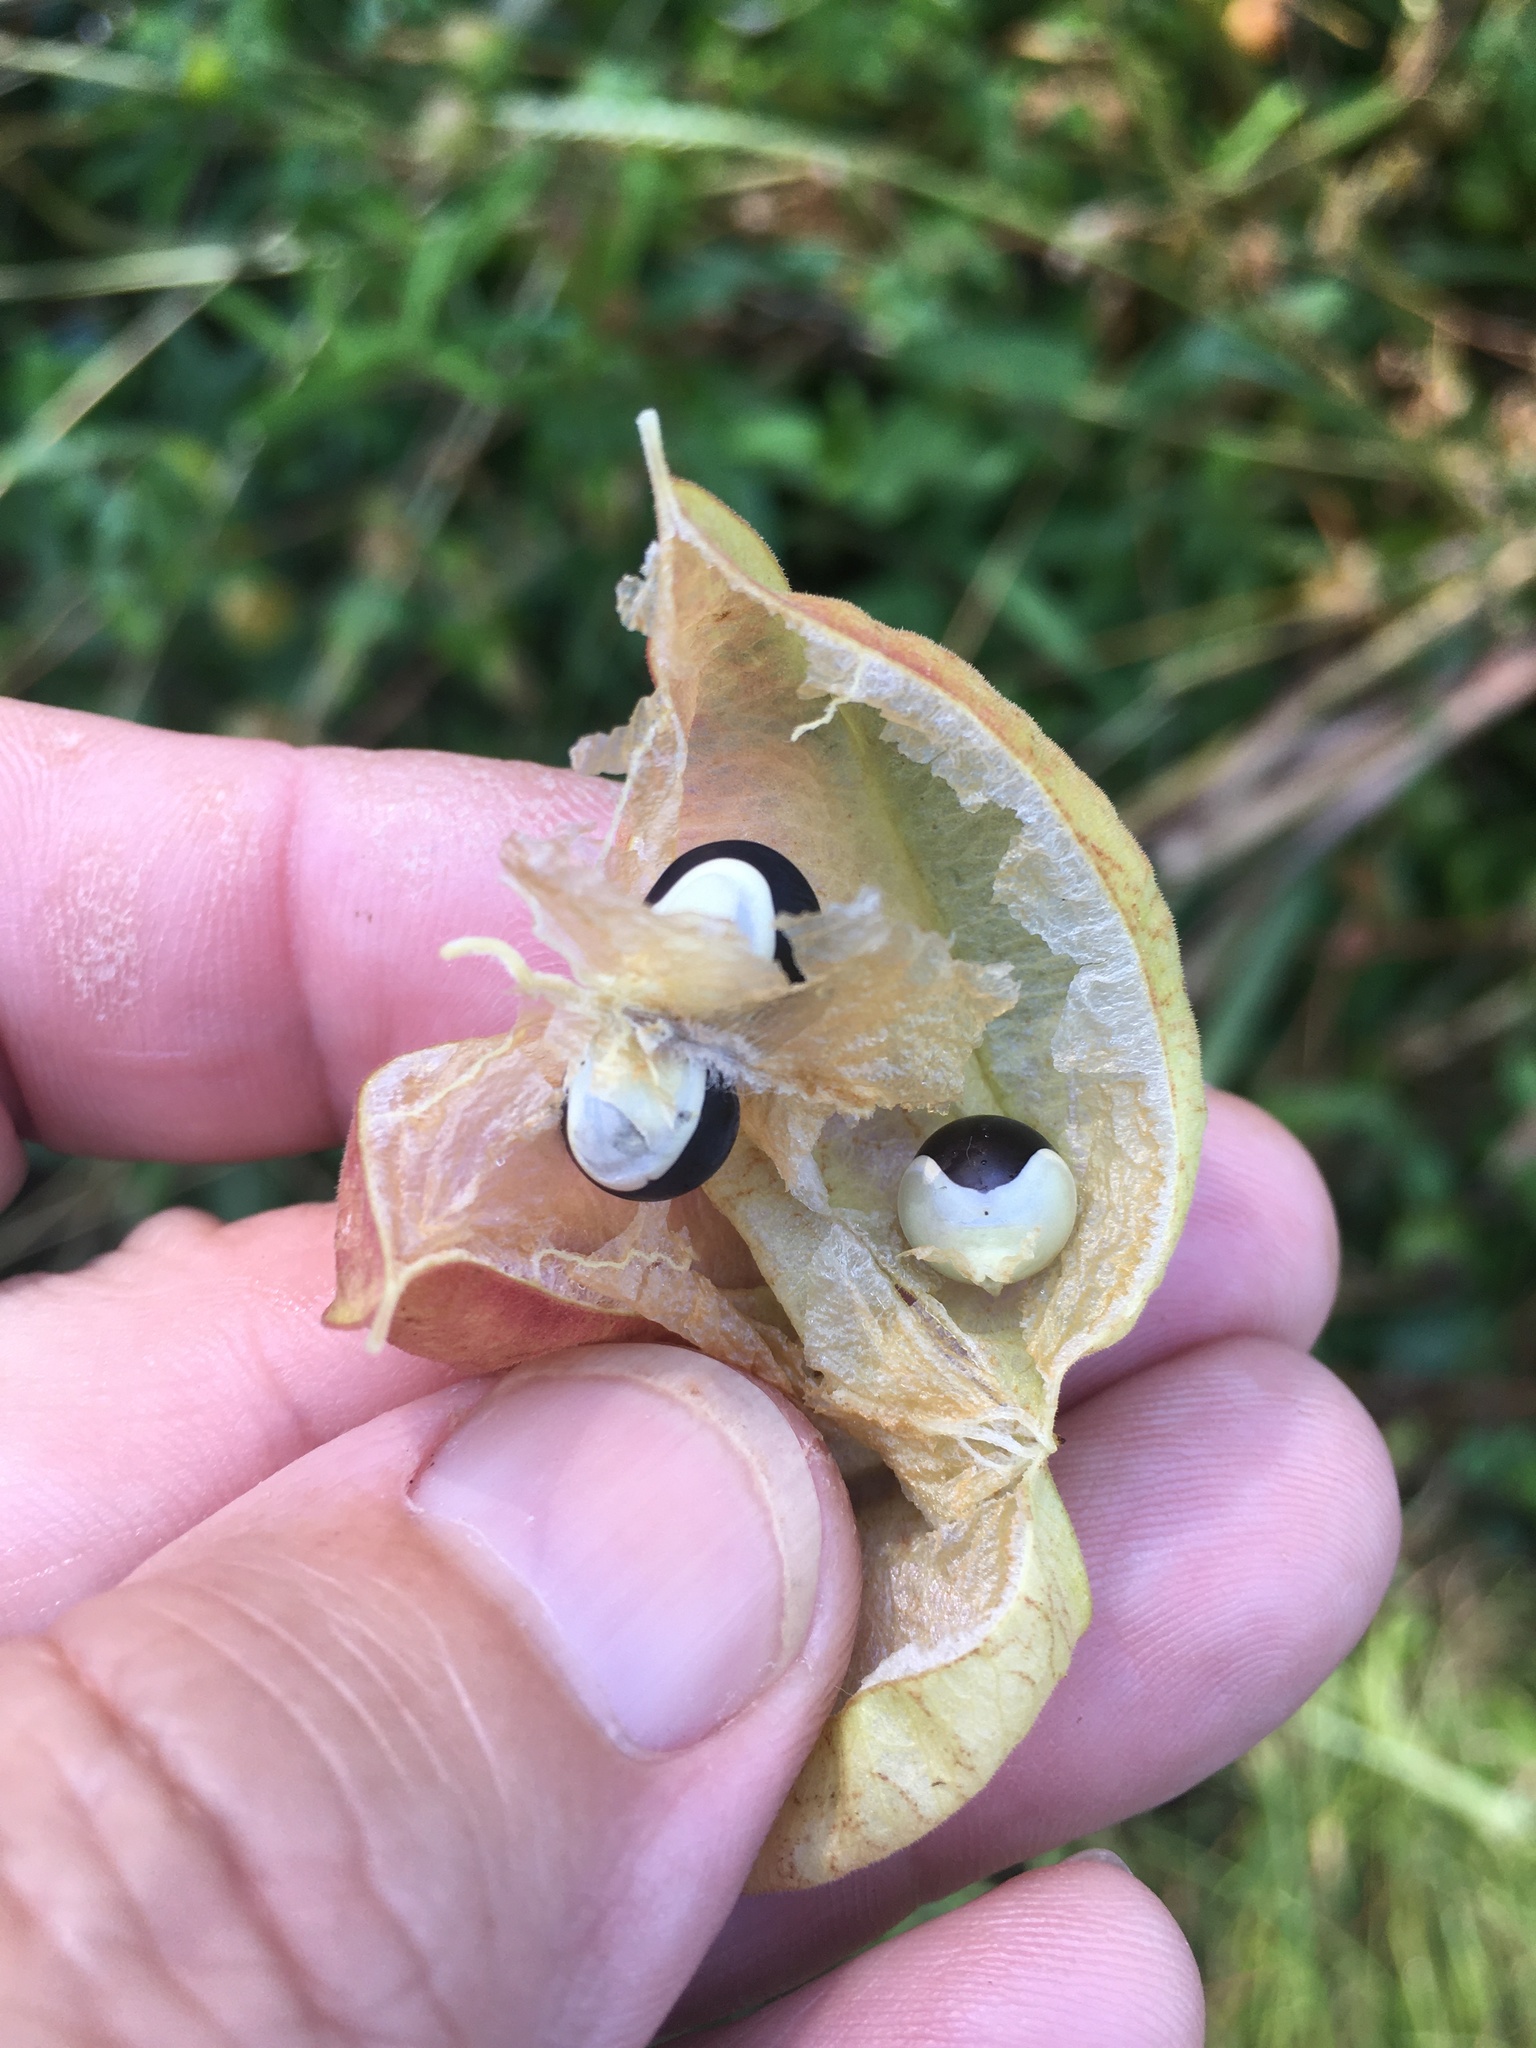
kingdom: Plantae
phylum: Tracheophyta
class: Magnoliopsida
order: Sapindales
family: Sapindaceae
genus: Cardiospermum
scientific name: Cardiospermum halicacabum
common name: Balloon vine
